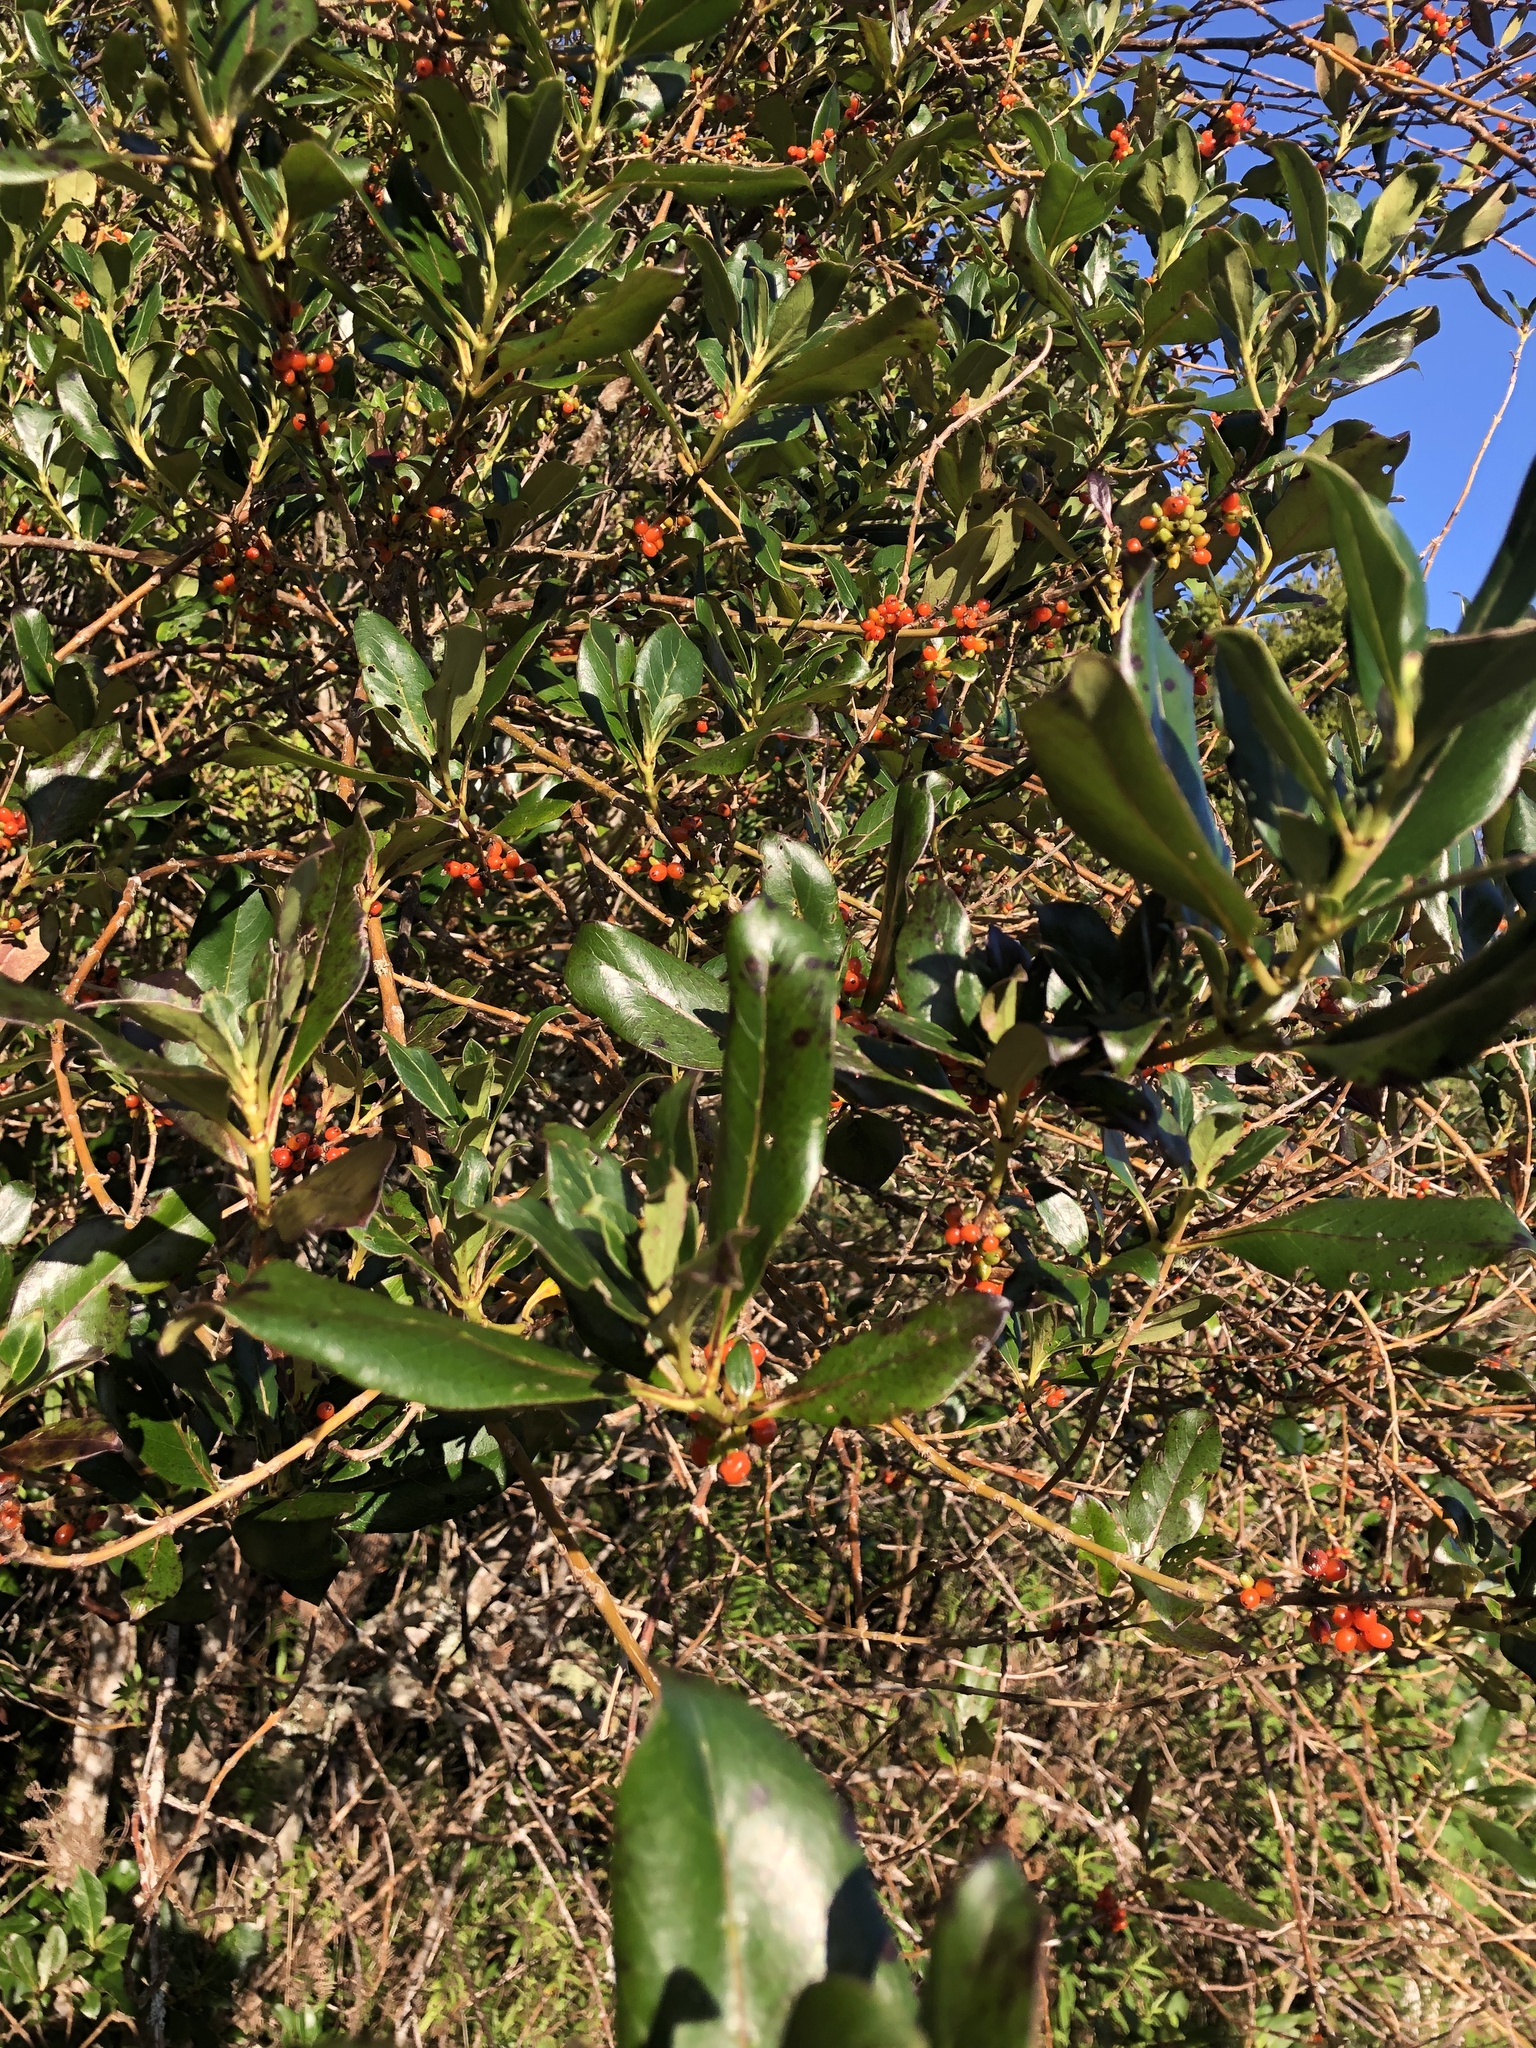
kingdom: Plantae
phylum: Tracheophyta
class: Magnoliopsida
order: Gentianales
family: Rubiaceae
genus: Coprosma
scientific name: Coprosma robusta
